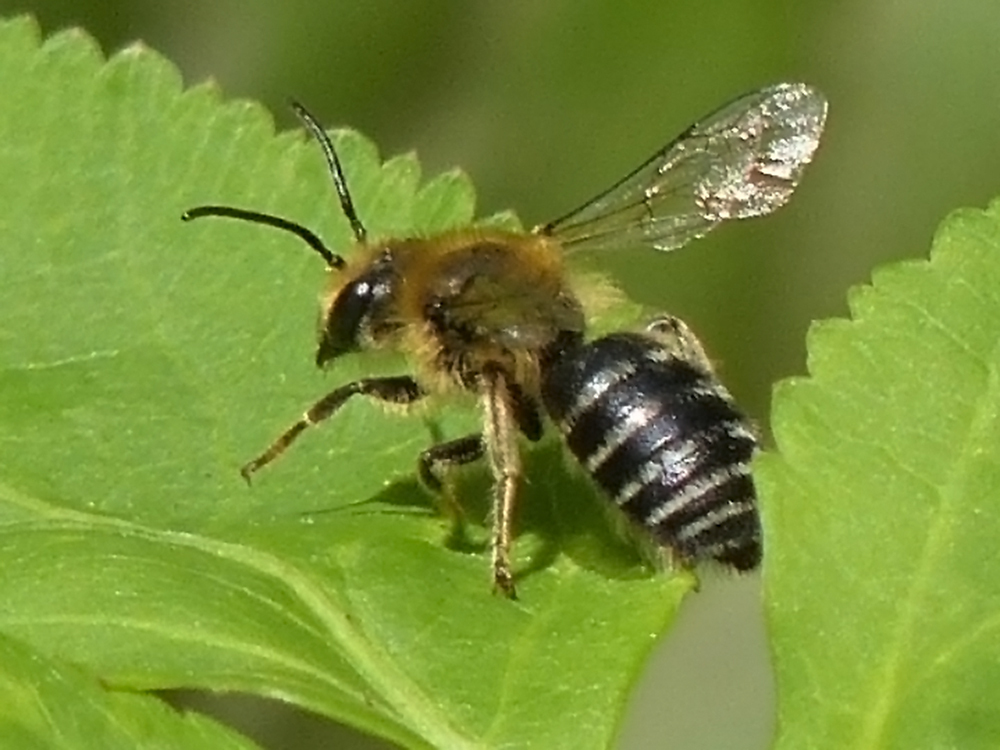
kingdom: Animalia
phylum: Arthropoda
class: Insecta
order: Hymenoptera
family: Colletidae
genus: Colletes
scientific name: Colletes aestivalis
